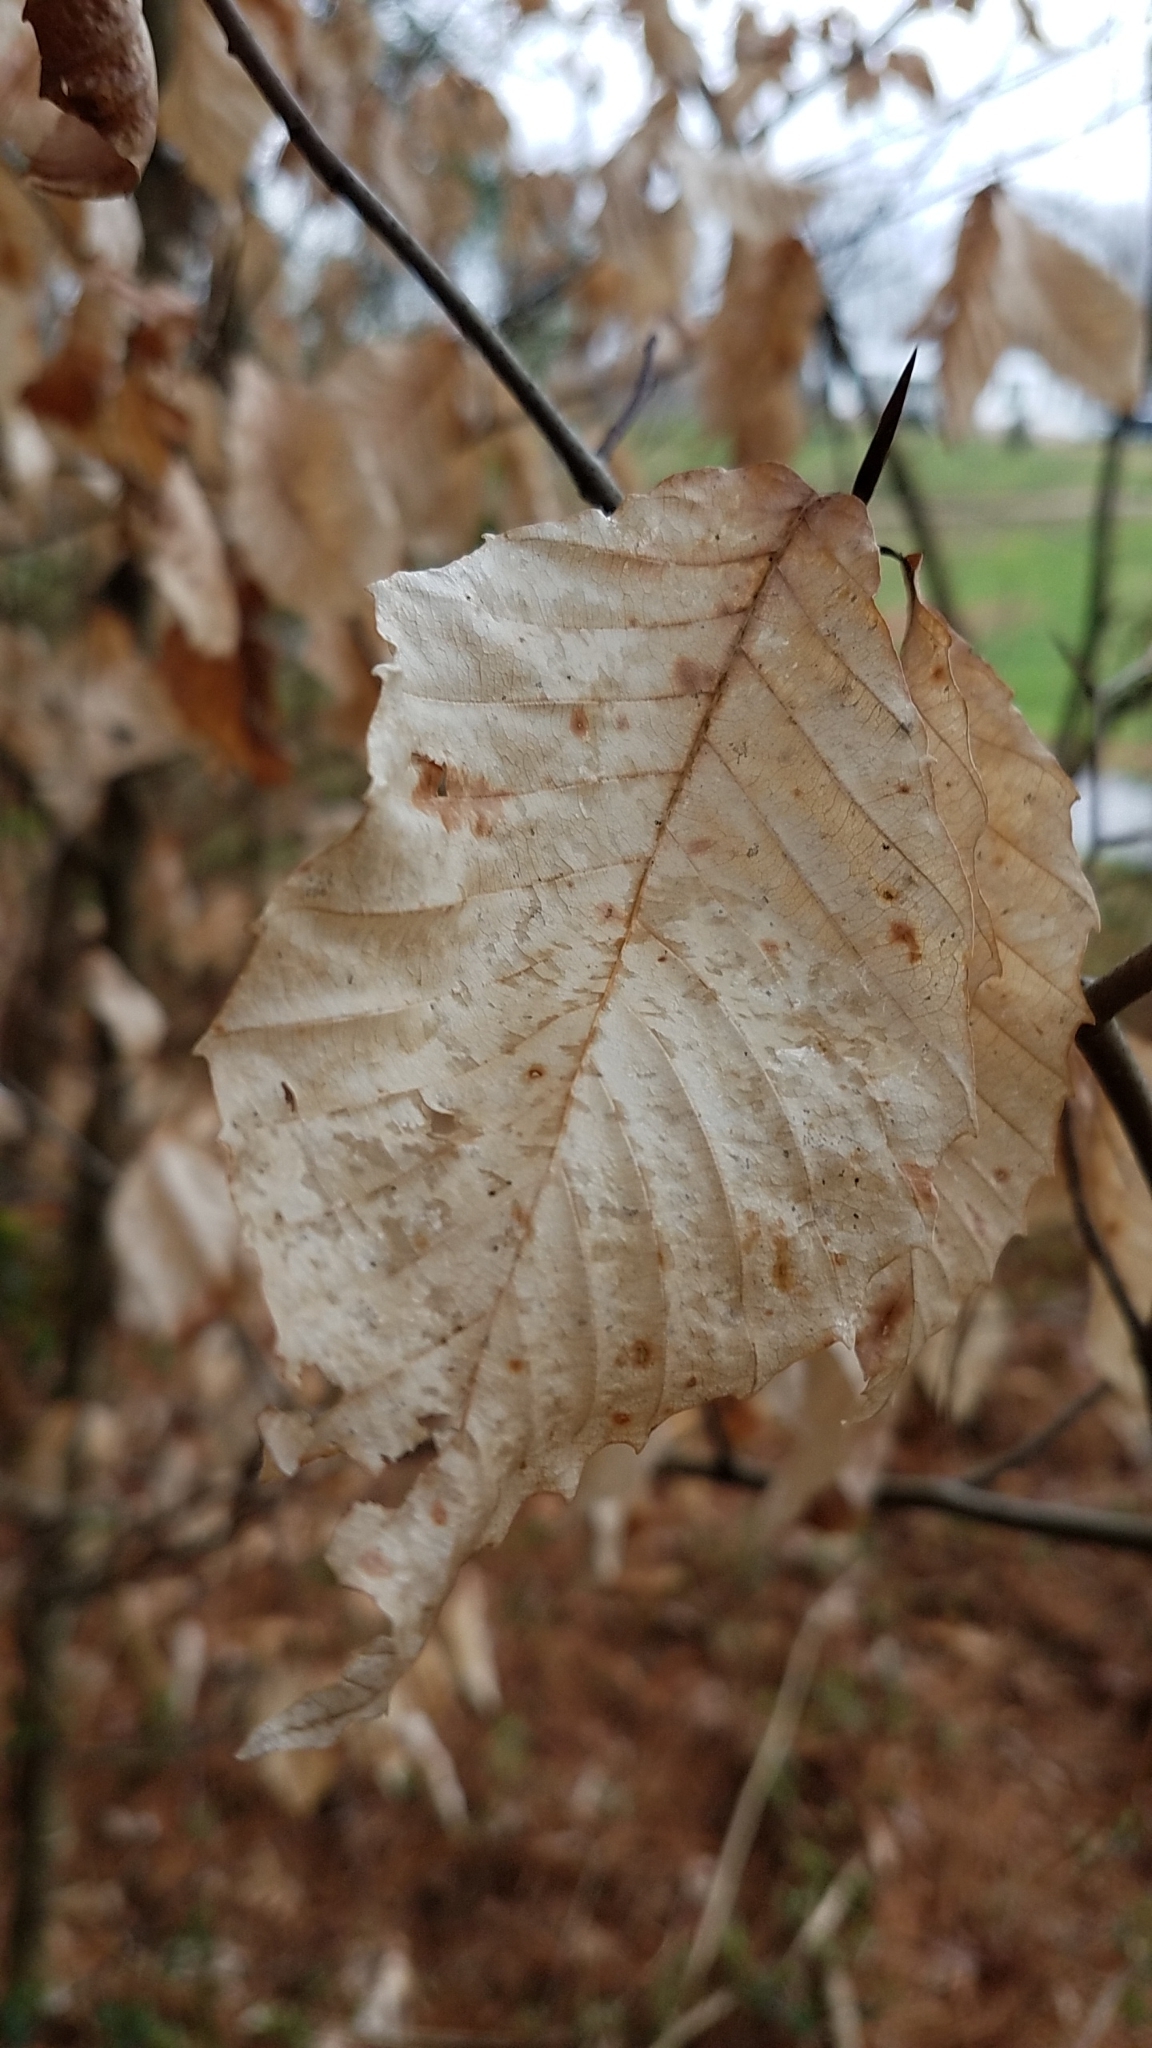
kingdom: Plantae
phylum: Tracheophyta
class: Magnoliopsida
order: Fagales
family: Fagaceae
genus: Fagus
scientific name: Fagus grandifolia
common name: American beech
